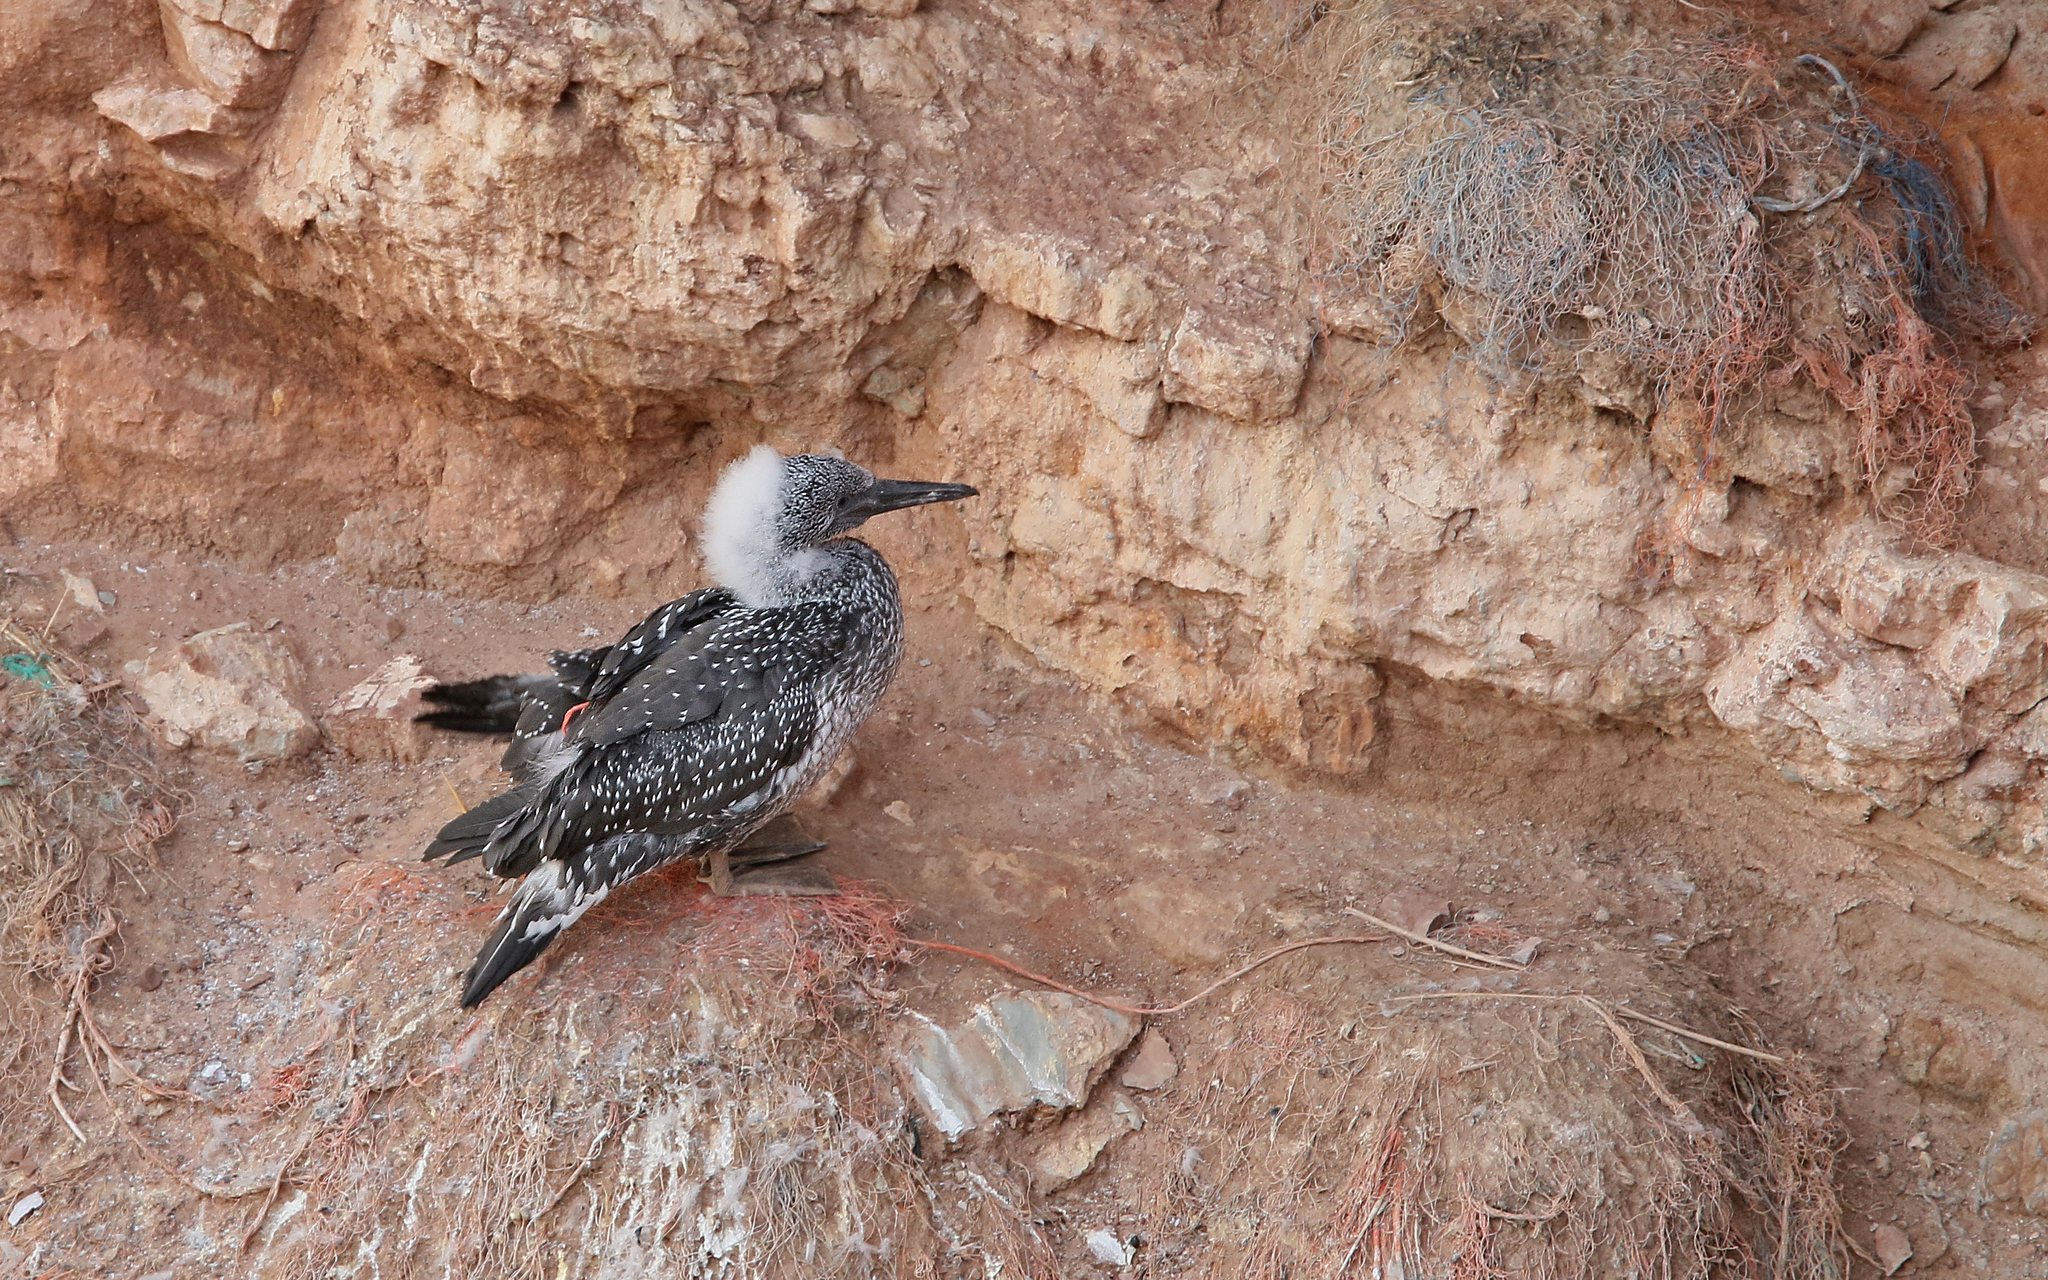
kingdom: Animalia
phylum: Chordata
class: Aves
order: Suliformes
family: Sulidae
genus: Morus
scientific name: Morus bassanus
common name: Northern gannet
